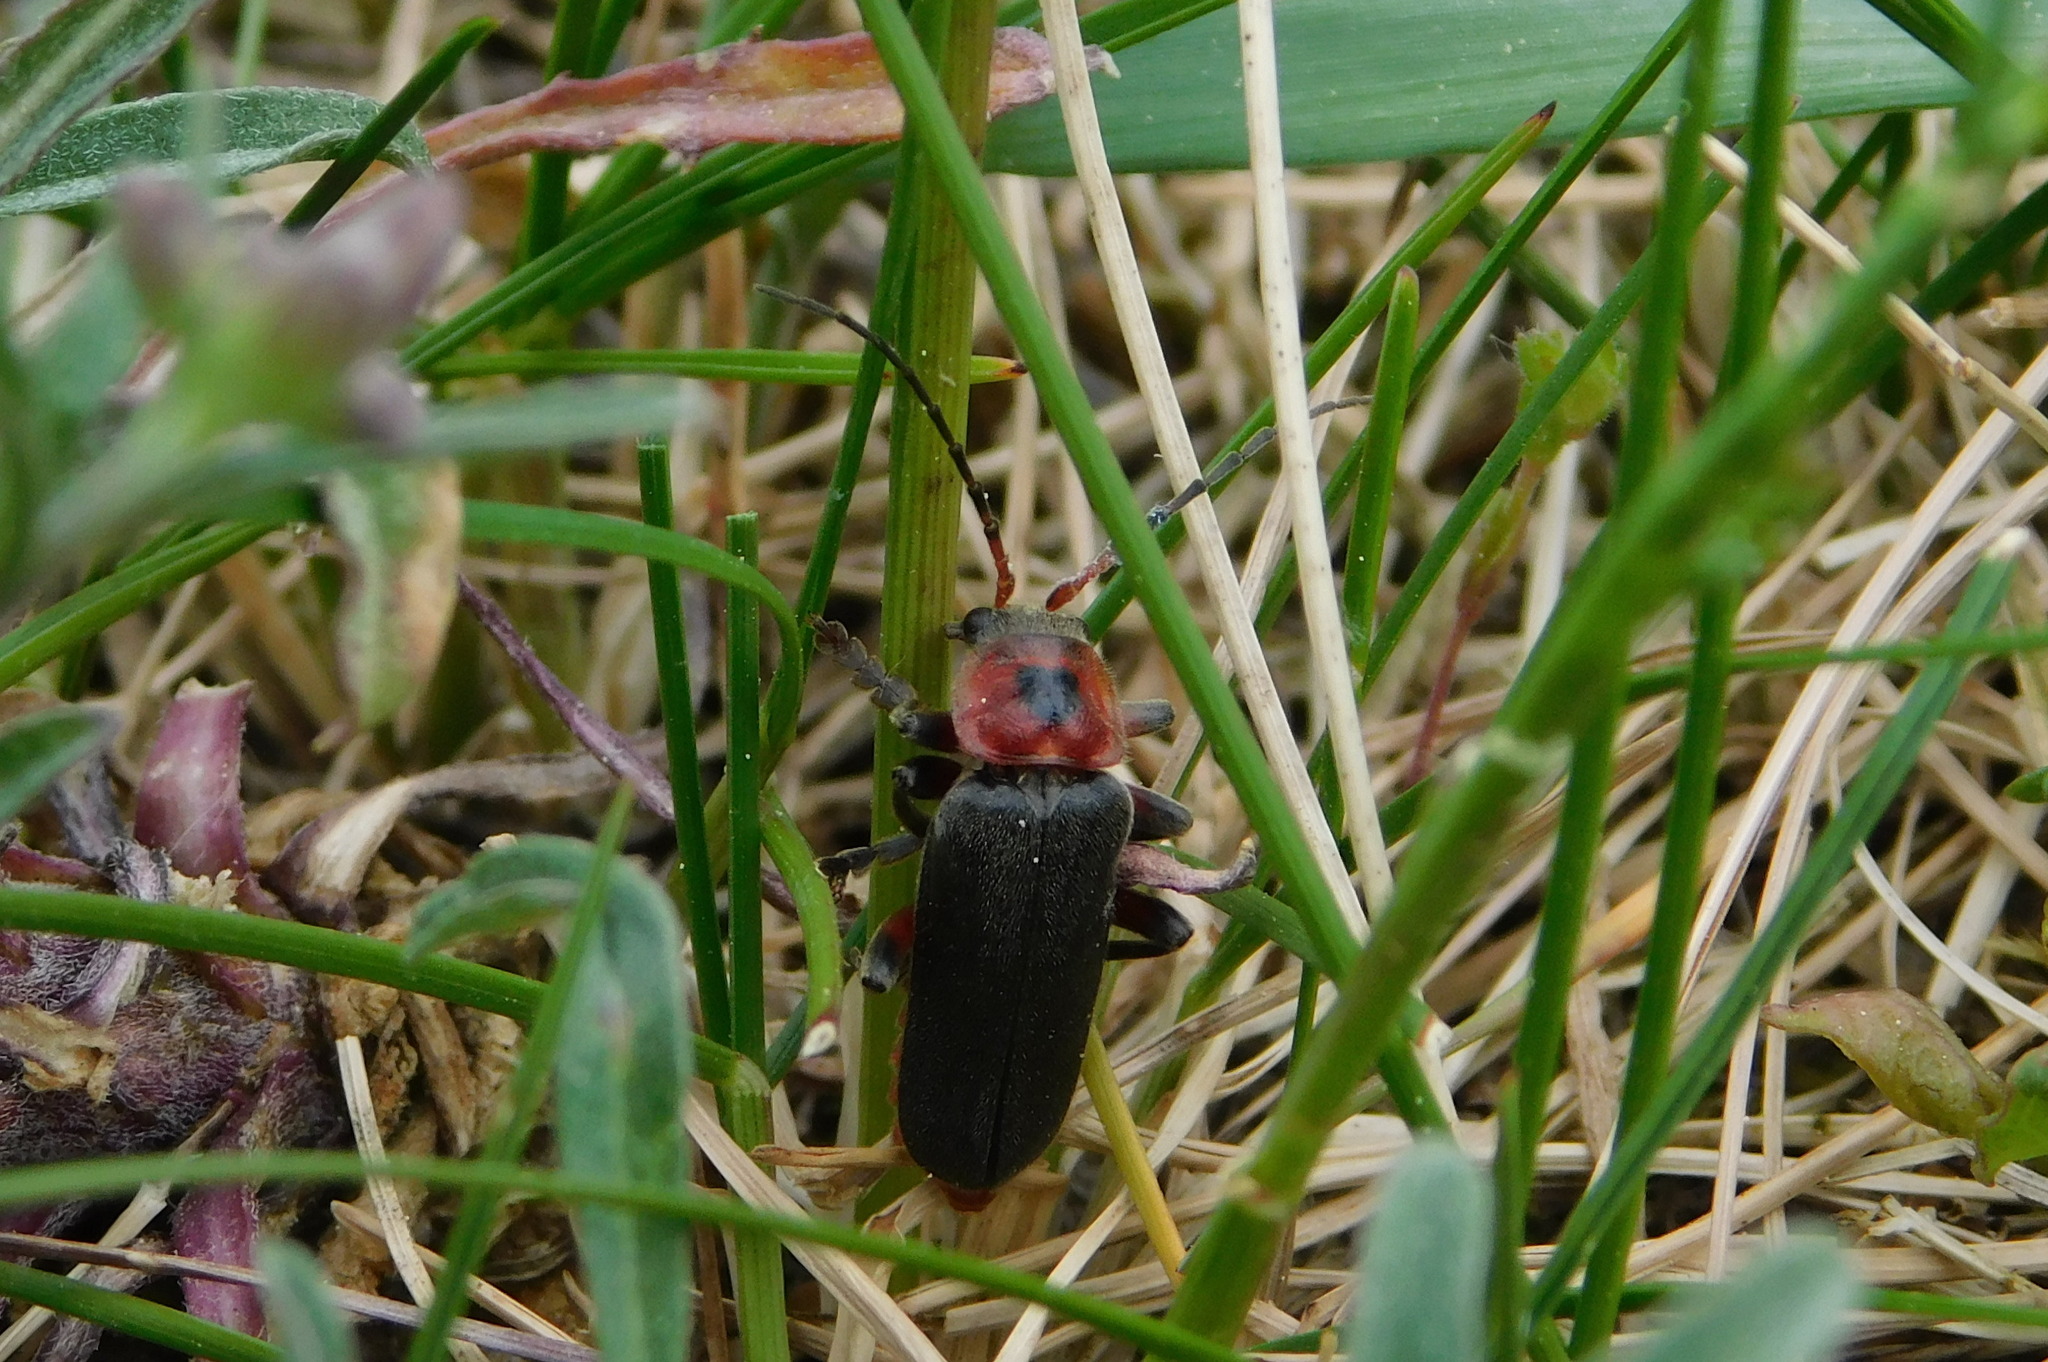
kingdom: Animalia
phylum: Arthropoda
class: Insecta
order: Coleoptera
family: Cantharidae
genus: Cantharis
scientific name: Cantharis rustica
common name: Soldier beetle
